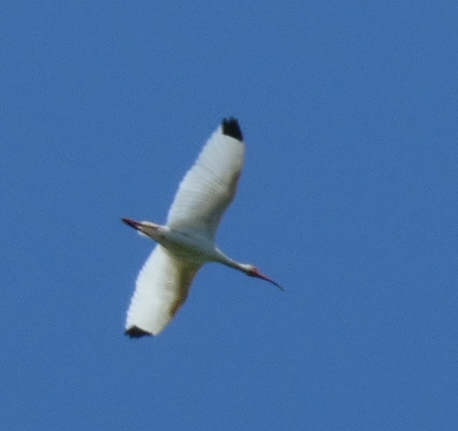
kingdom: Animalia
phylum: Chordata
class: Aves
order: Pelecaniformes
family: Threskiornithidae
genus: Eudocimus
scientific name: Eudocimus albus
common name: White ibis
